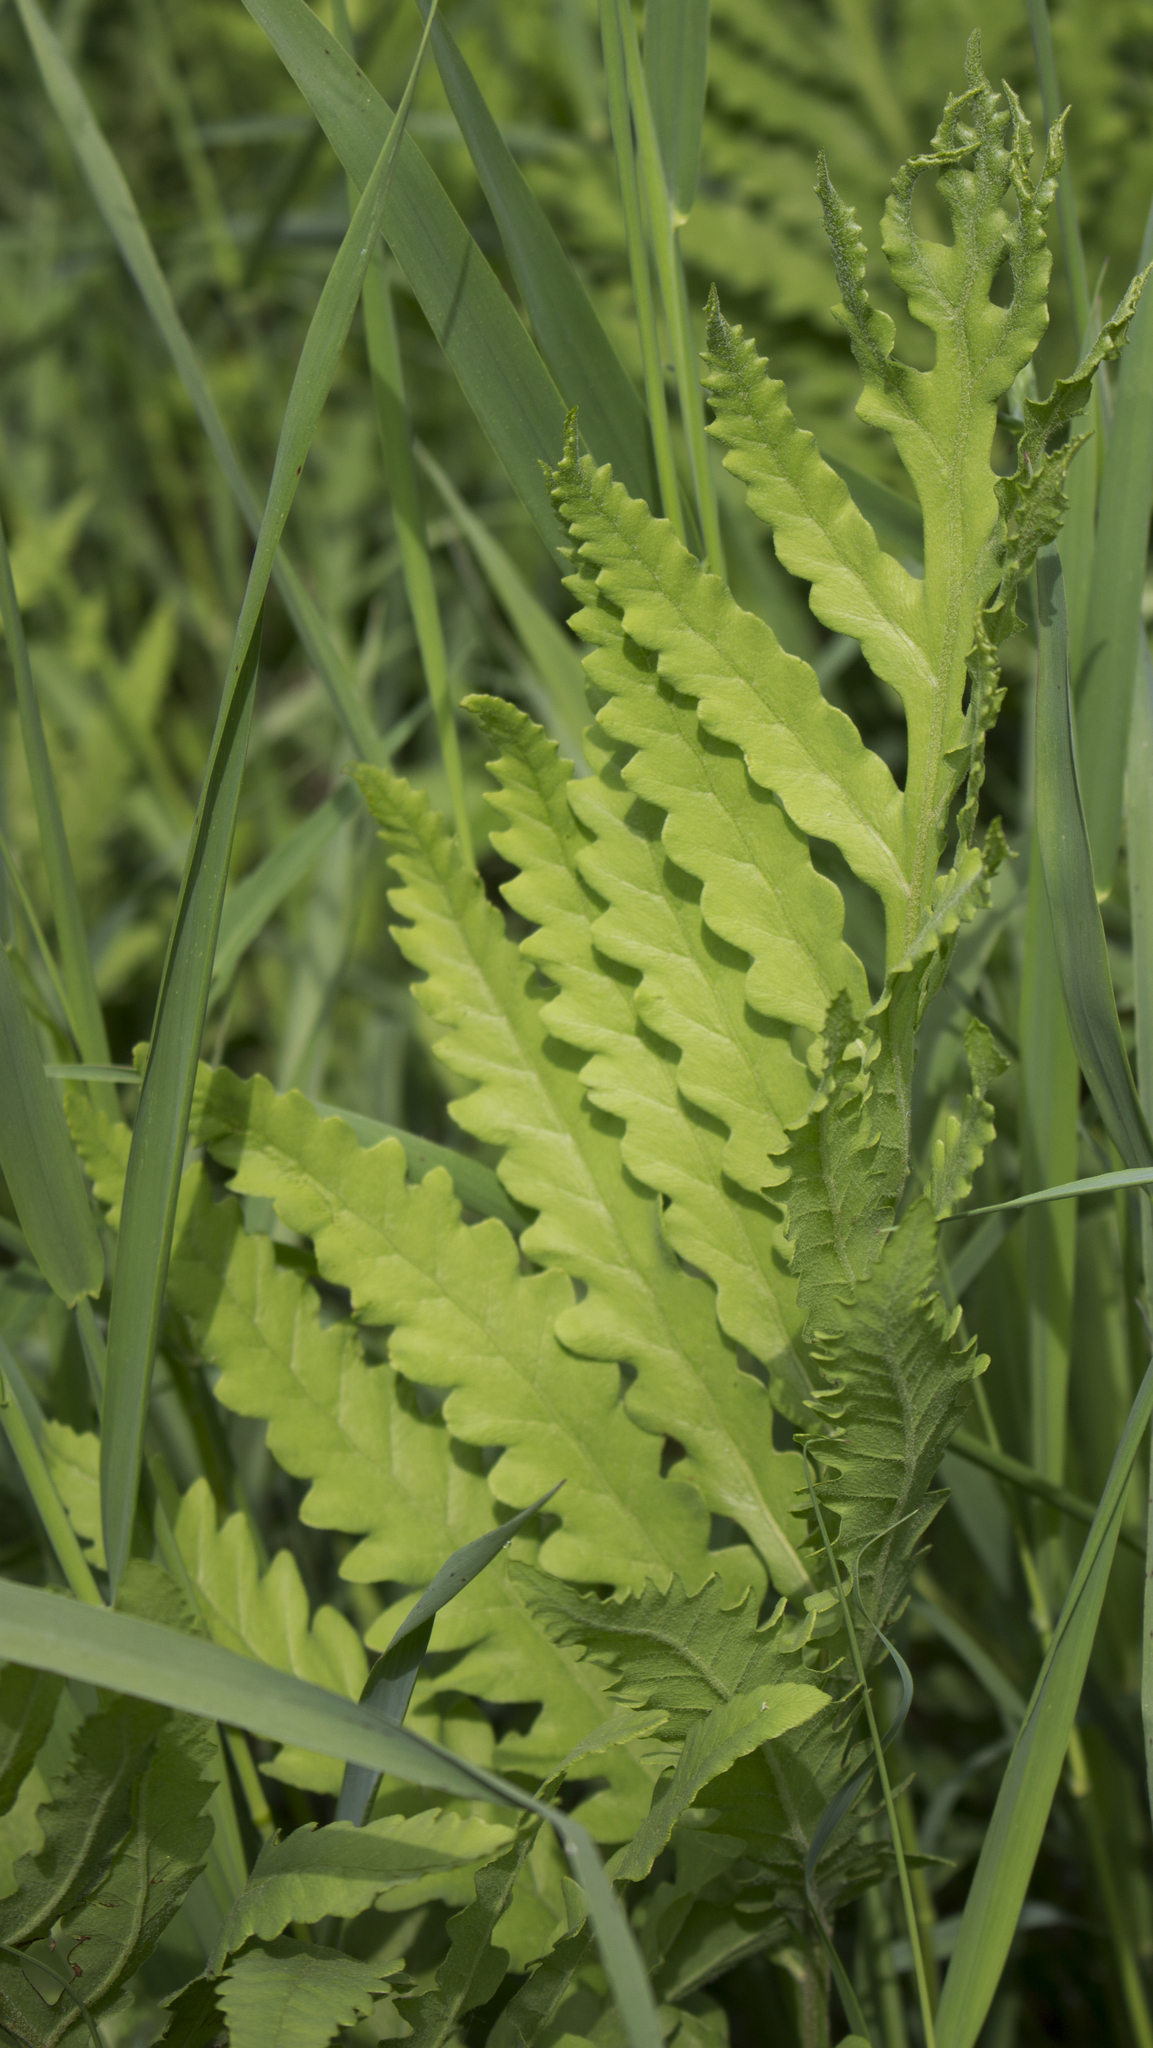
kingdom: Plantae
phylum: Tracheophyta
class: Polypodiopsida
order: Polypodiales
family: Onocleaceae
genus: Onoclea
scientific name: Onoclea sensibilis
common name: Sensitive fern
